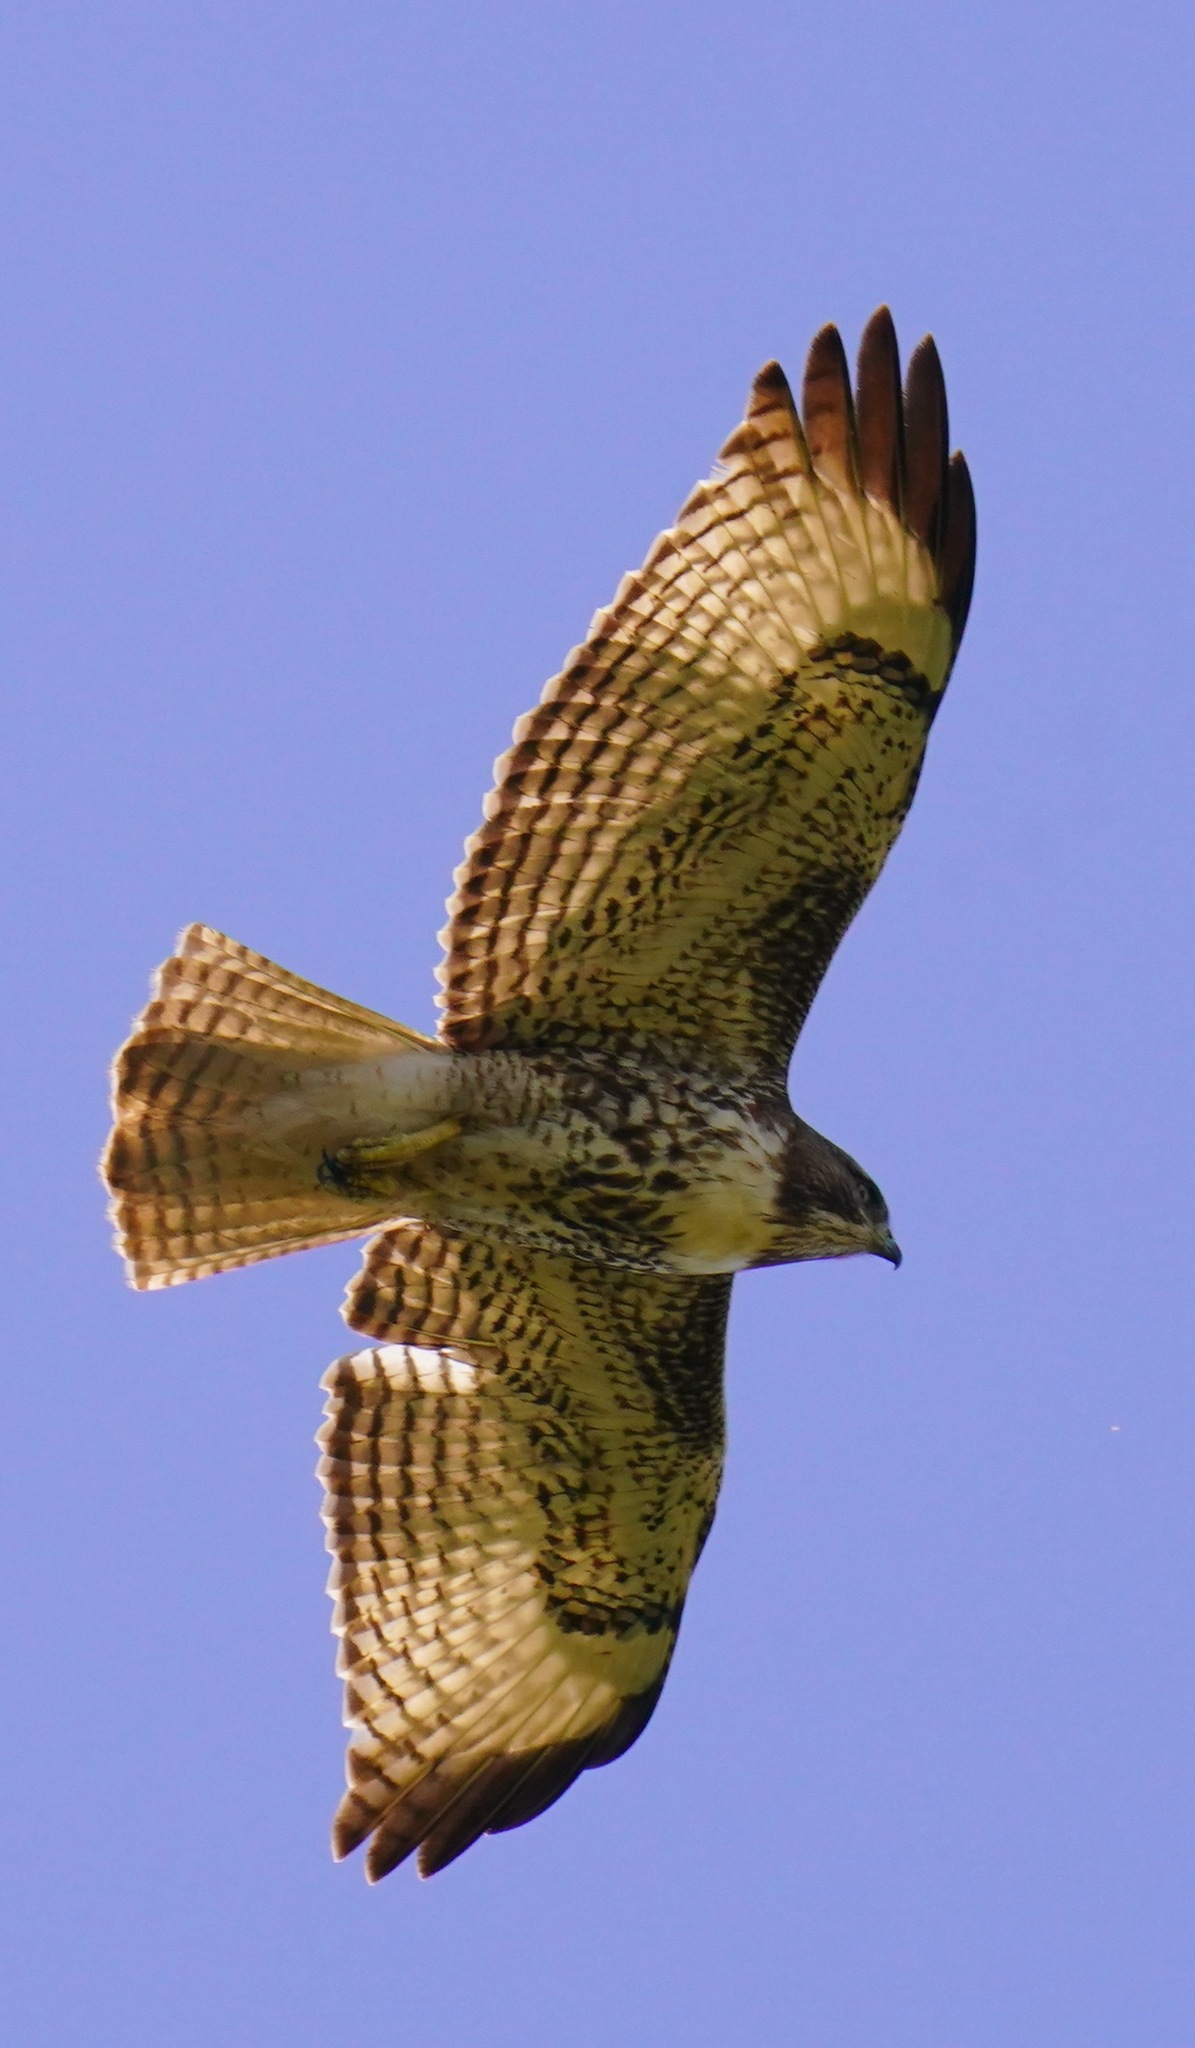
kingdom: Animalia
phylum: Chordata
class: Aves
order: Accipitriformes
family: Accipitridae
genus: Buteo
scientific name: Buteo jamaicensis
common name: Red-tailed hawk
